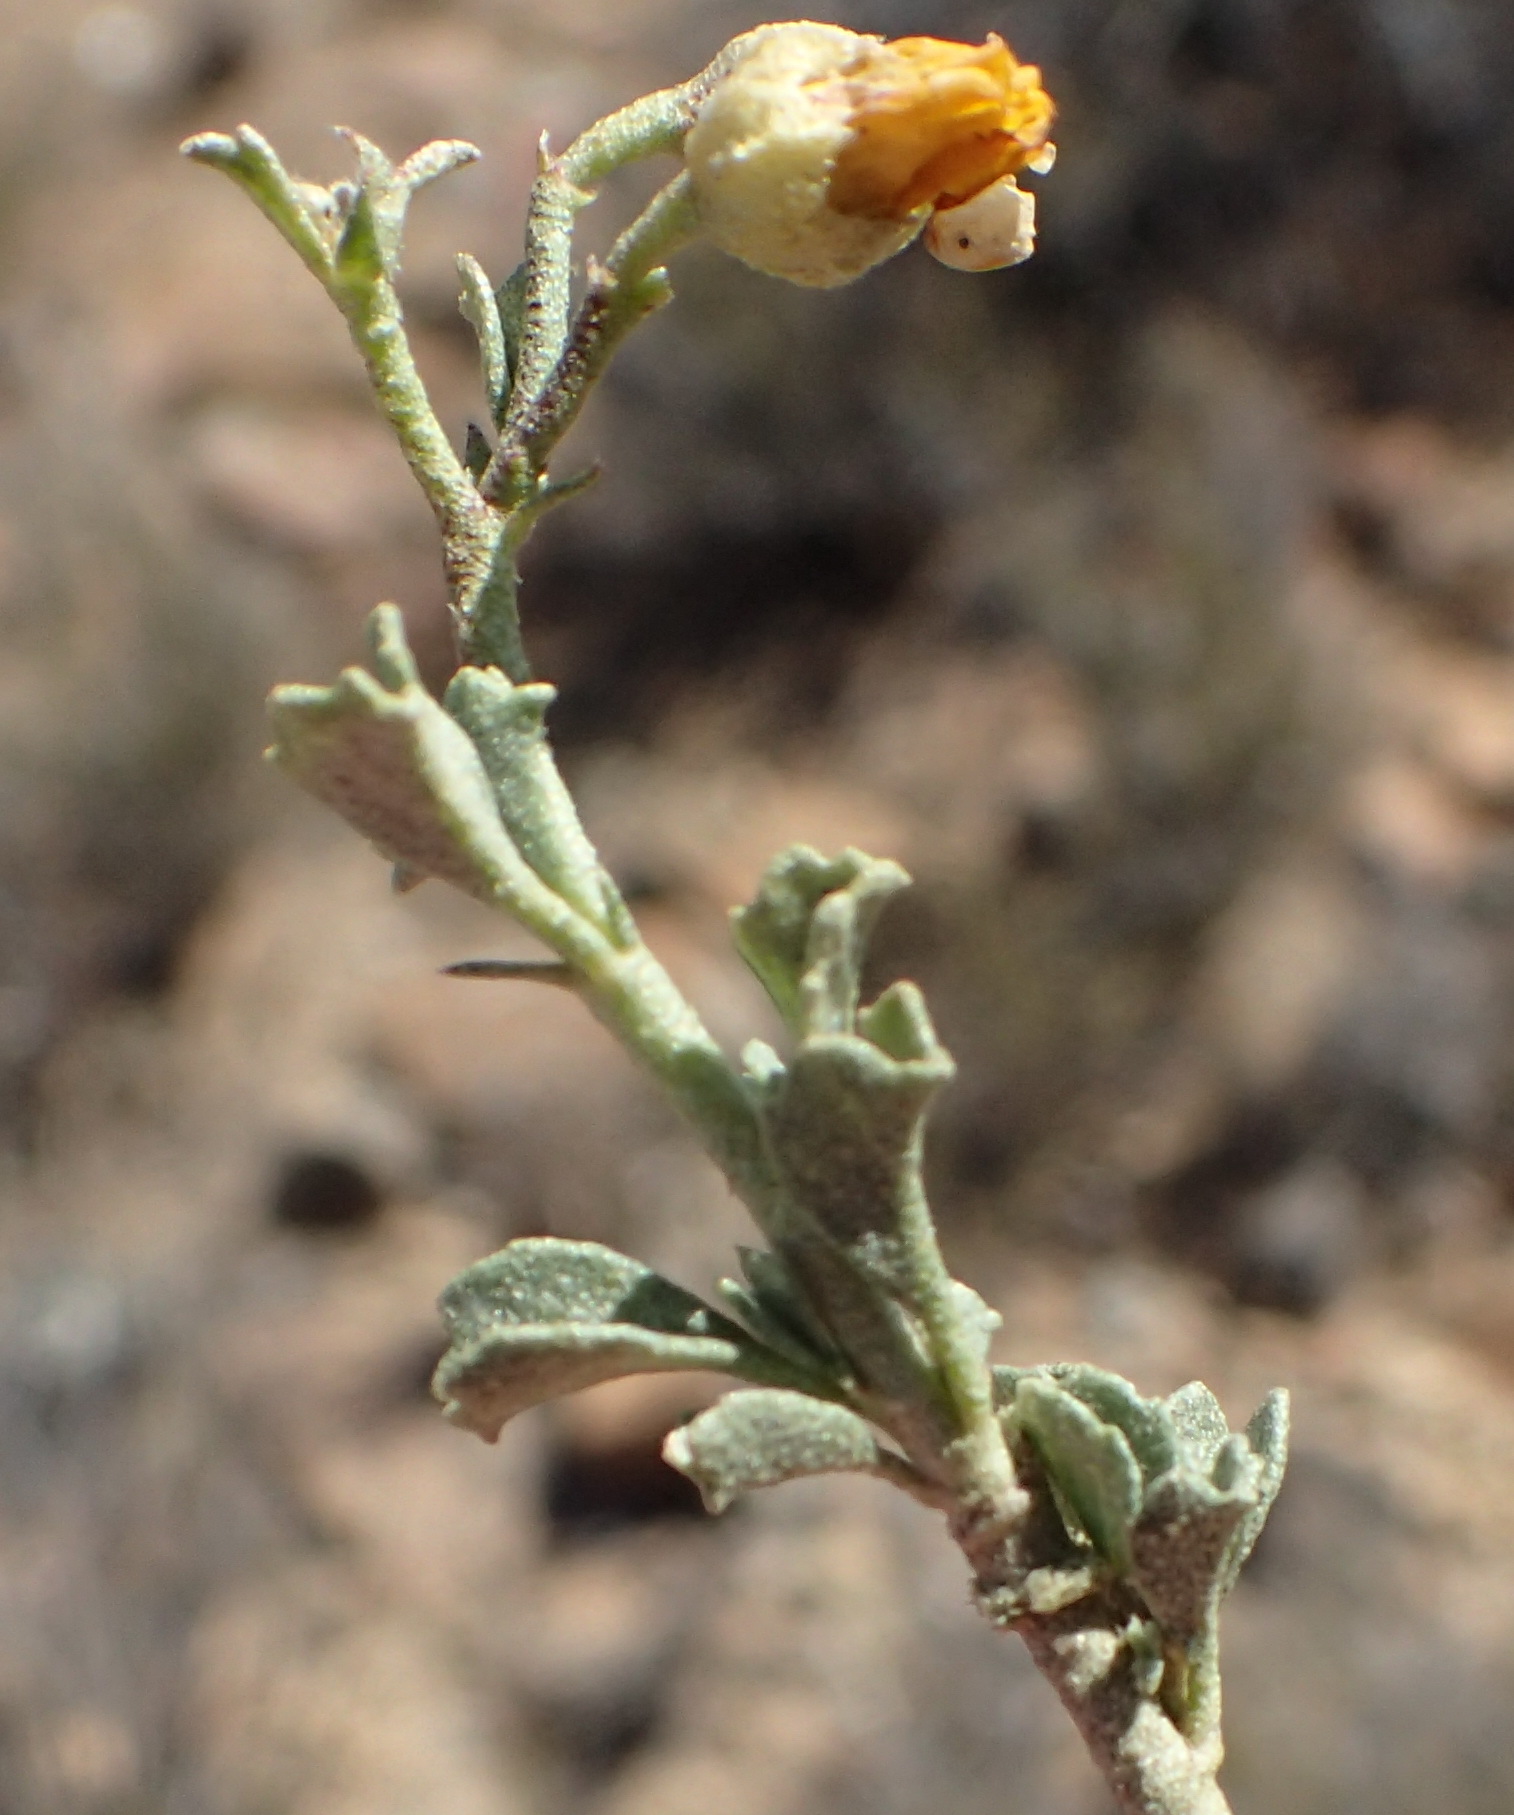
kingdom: Plantae
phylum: Tracheophyta
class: Magnoliopsida
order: Malvales
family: Malvaceae
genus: Hermannia
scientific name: Hermannia pfeilii
